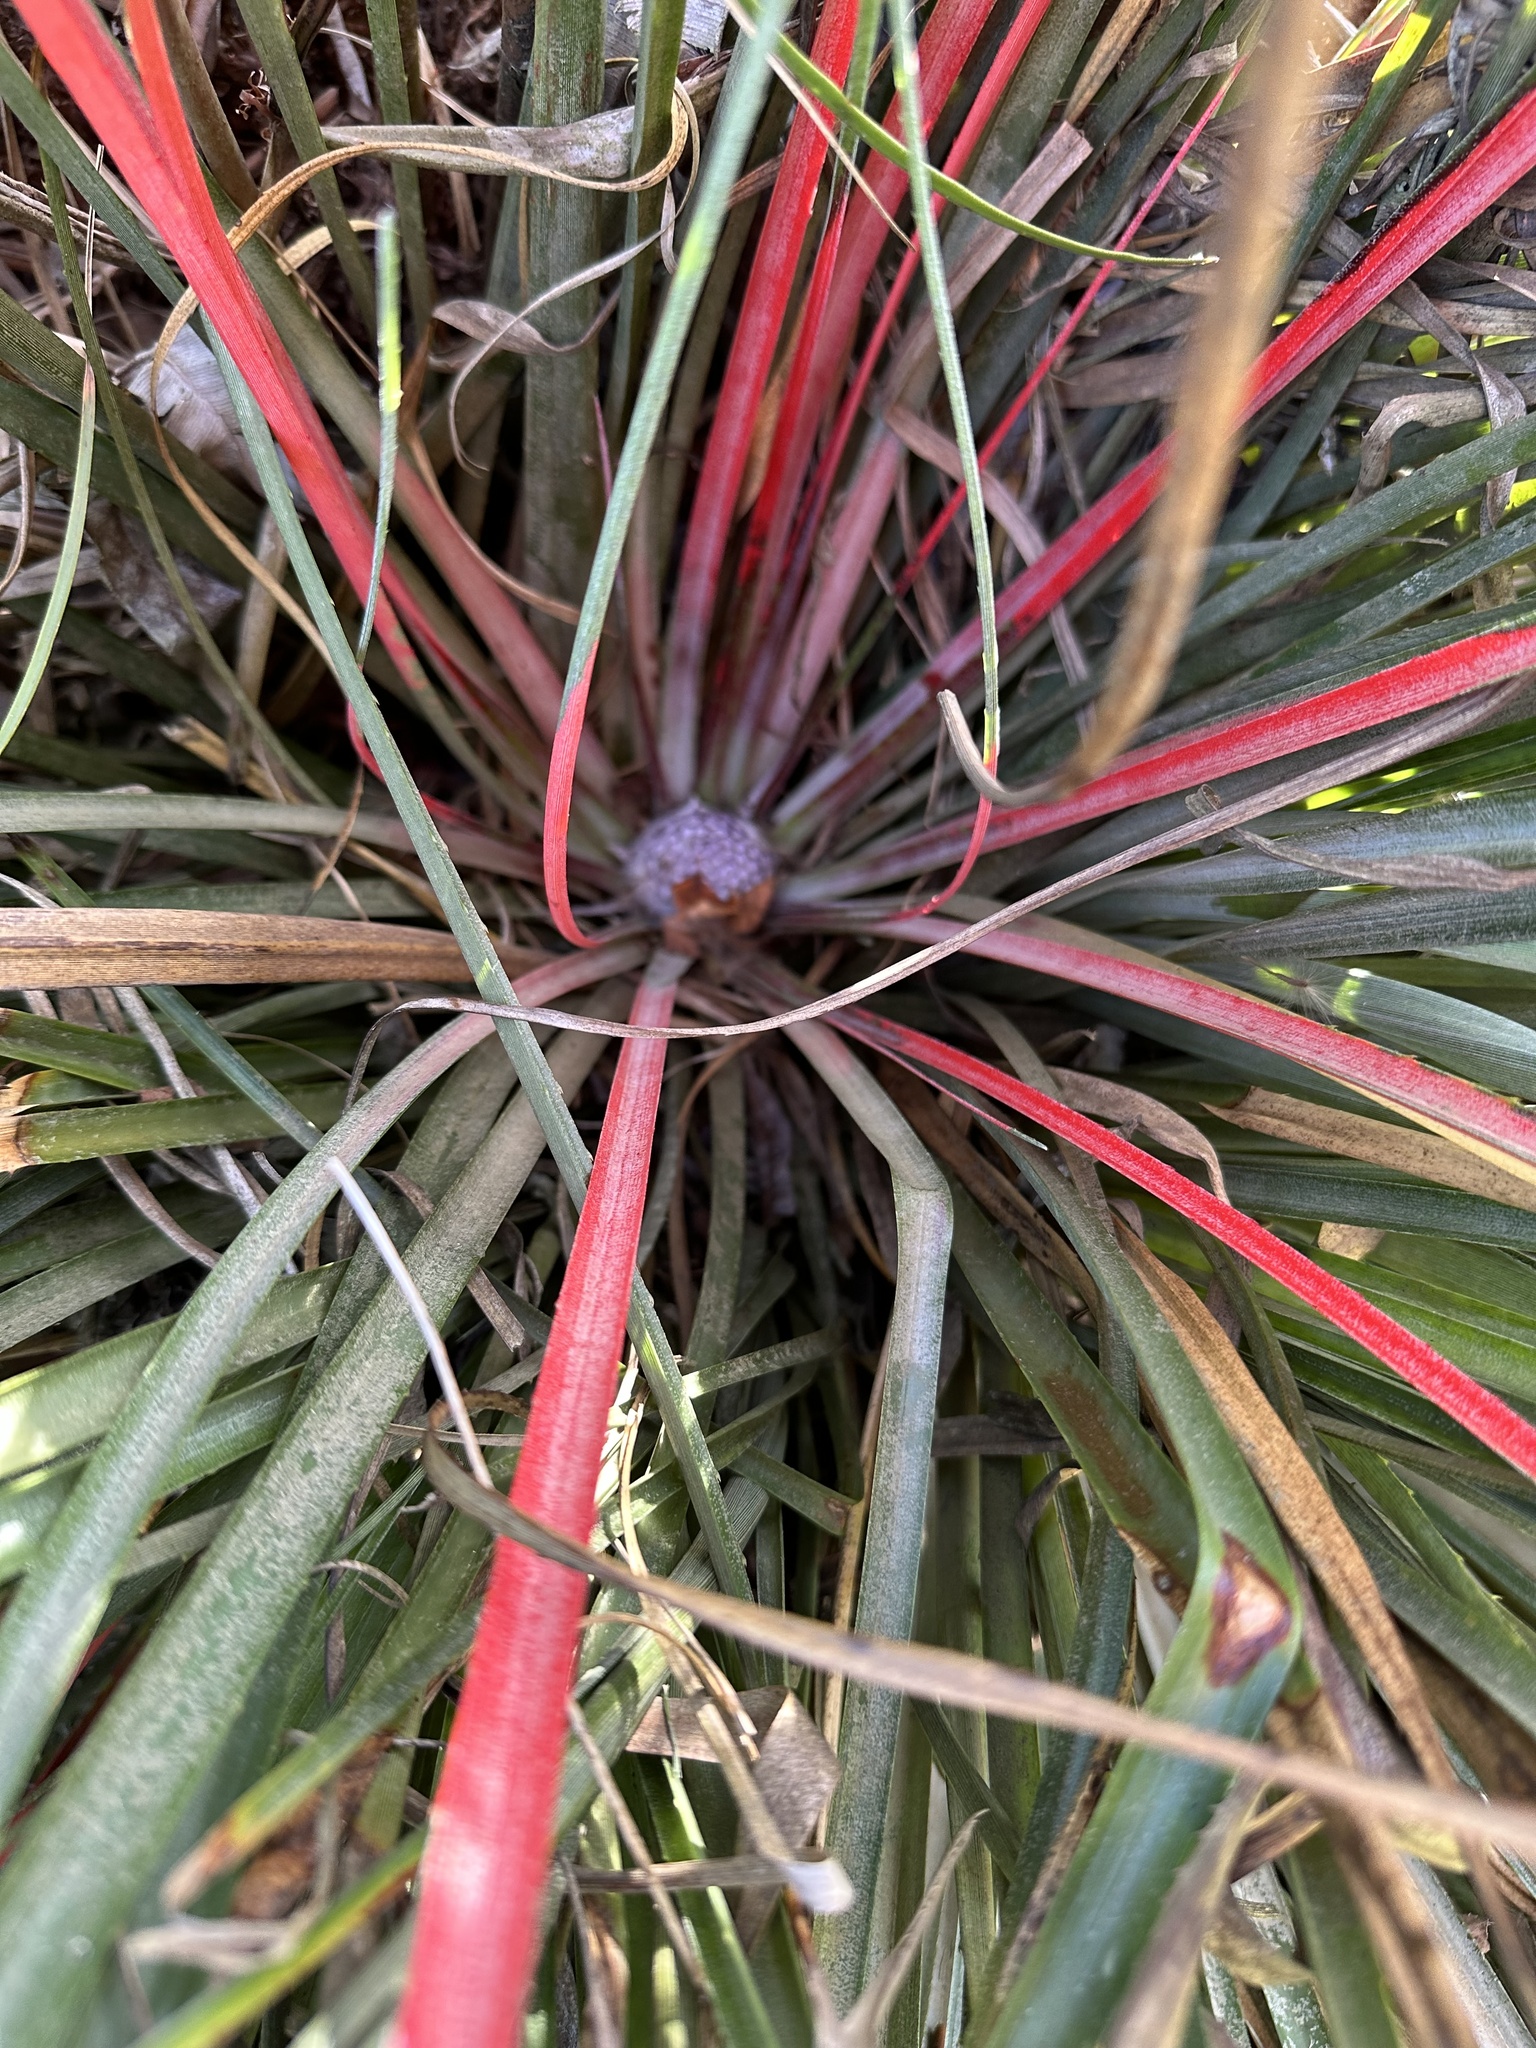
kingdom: Plantae
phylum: Tracheophyta
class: Liliopsida
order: Poales
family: Bromeliaceae
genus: Fascicularia
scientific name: Fascicularia bicolor
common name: Rhodostachys
